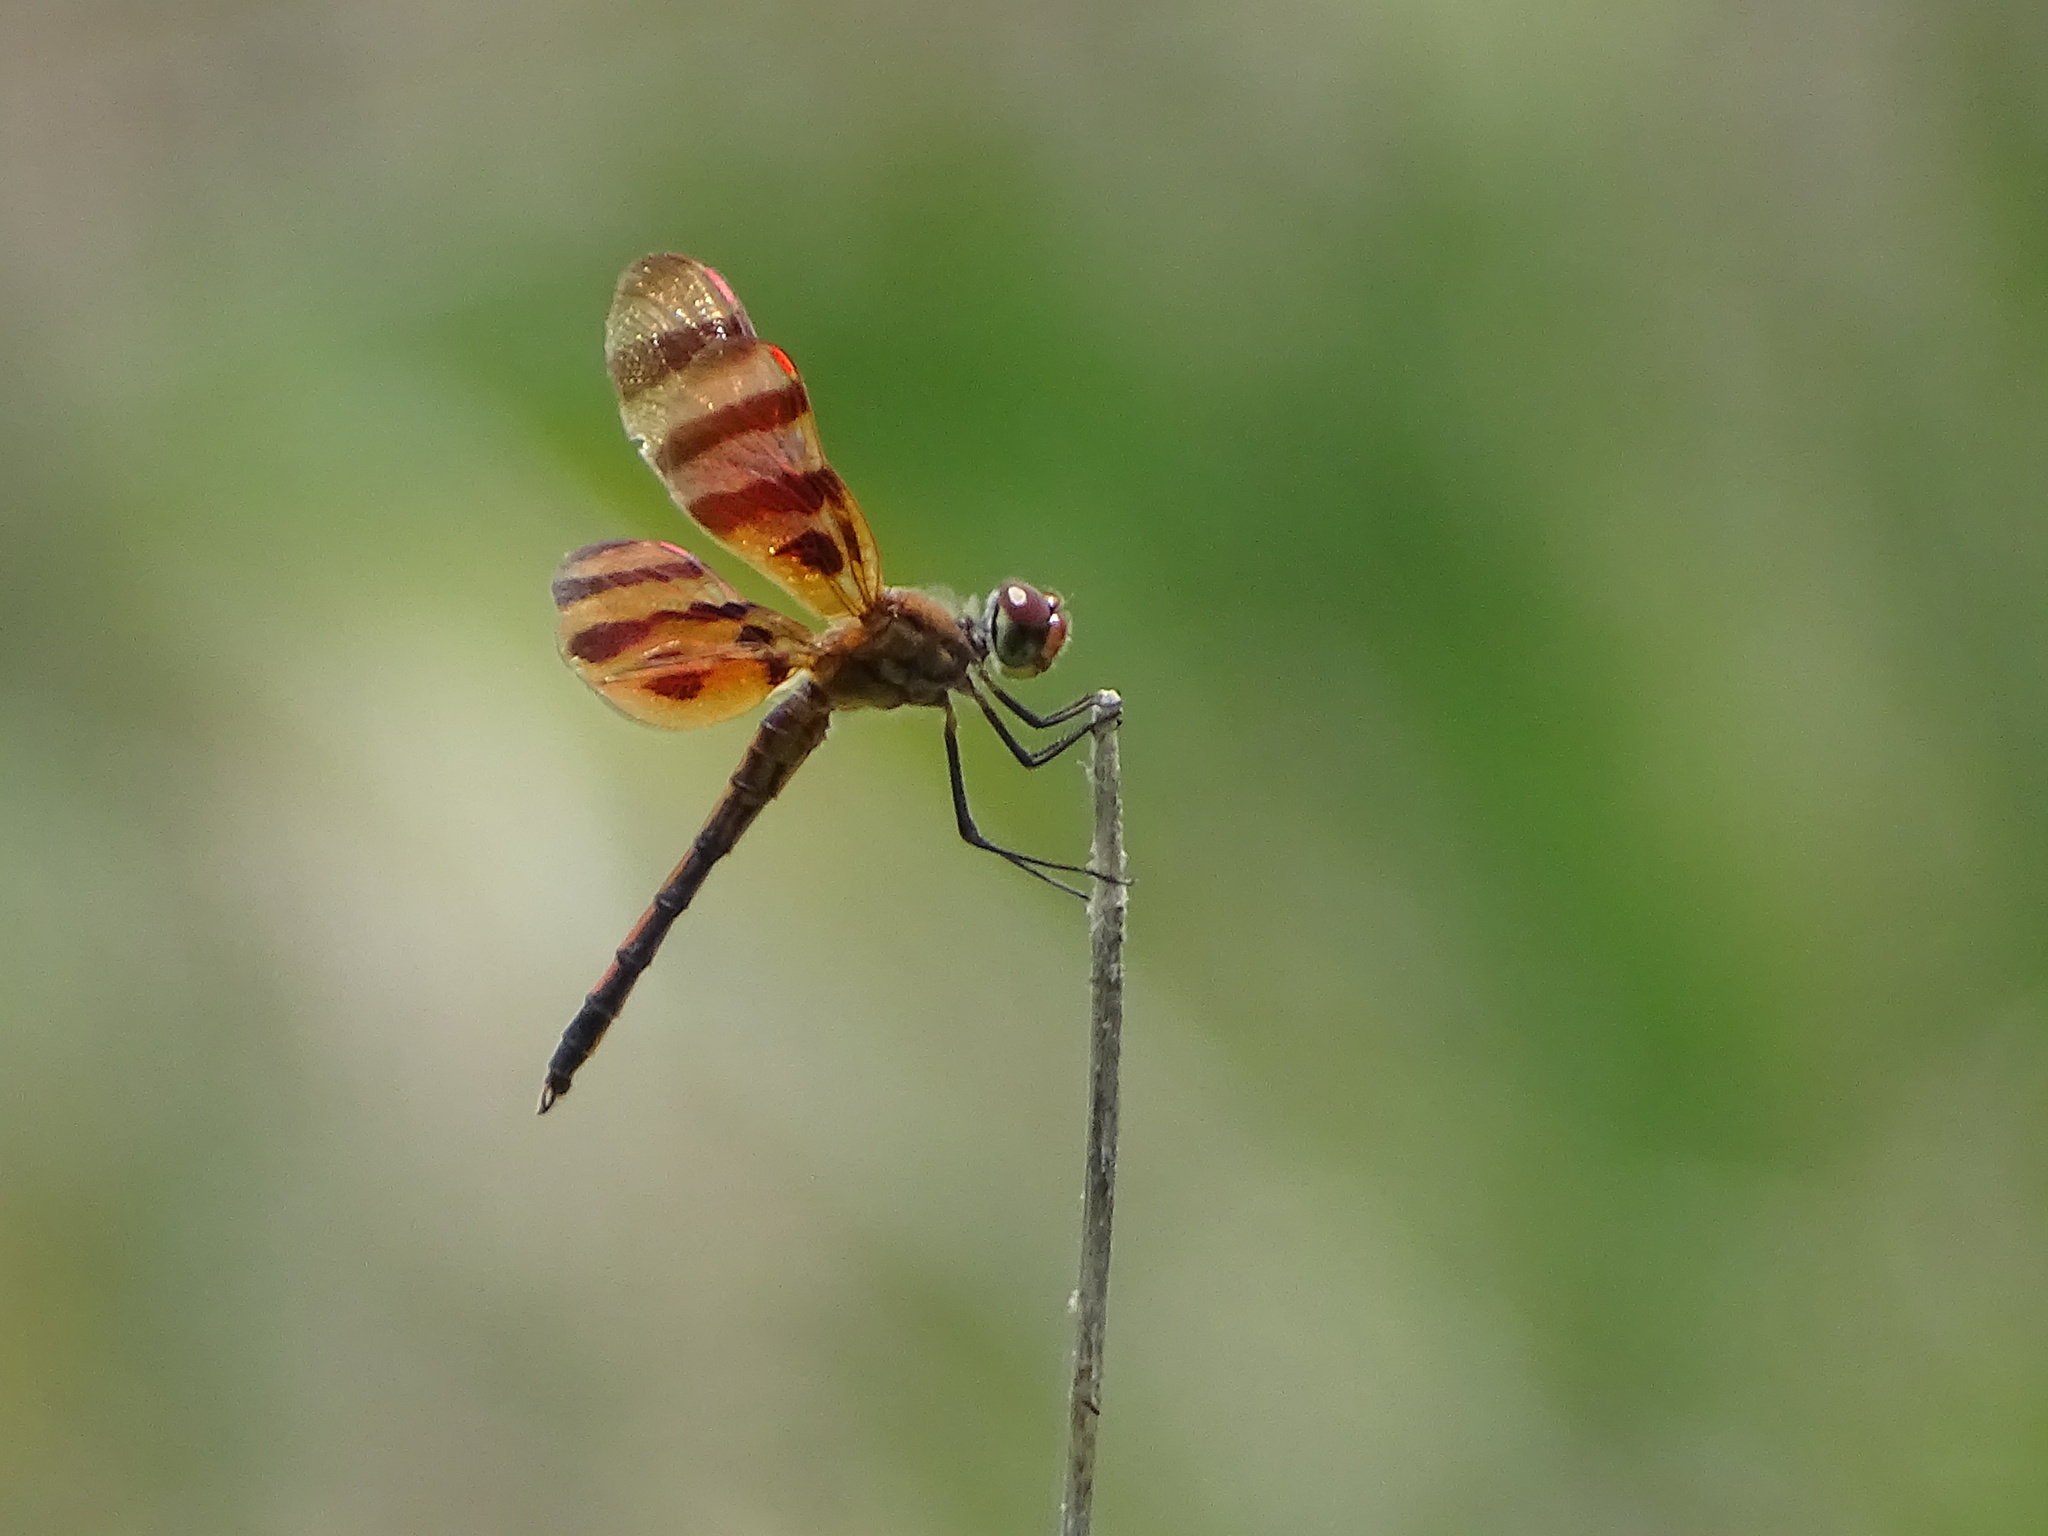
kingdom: Animalia
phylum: Arthropoda
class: Insecta
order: Odonata
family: Libellulidae
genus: Celithemis
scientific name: Celithemis eponina
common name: Halloween pennant
